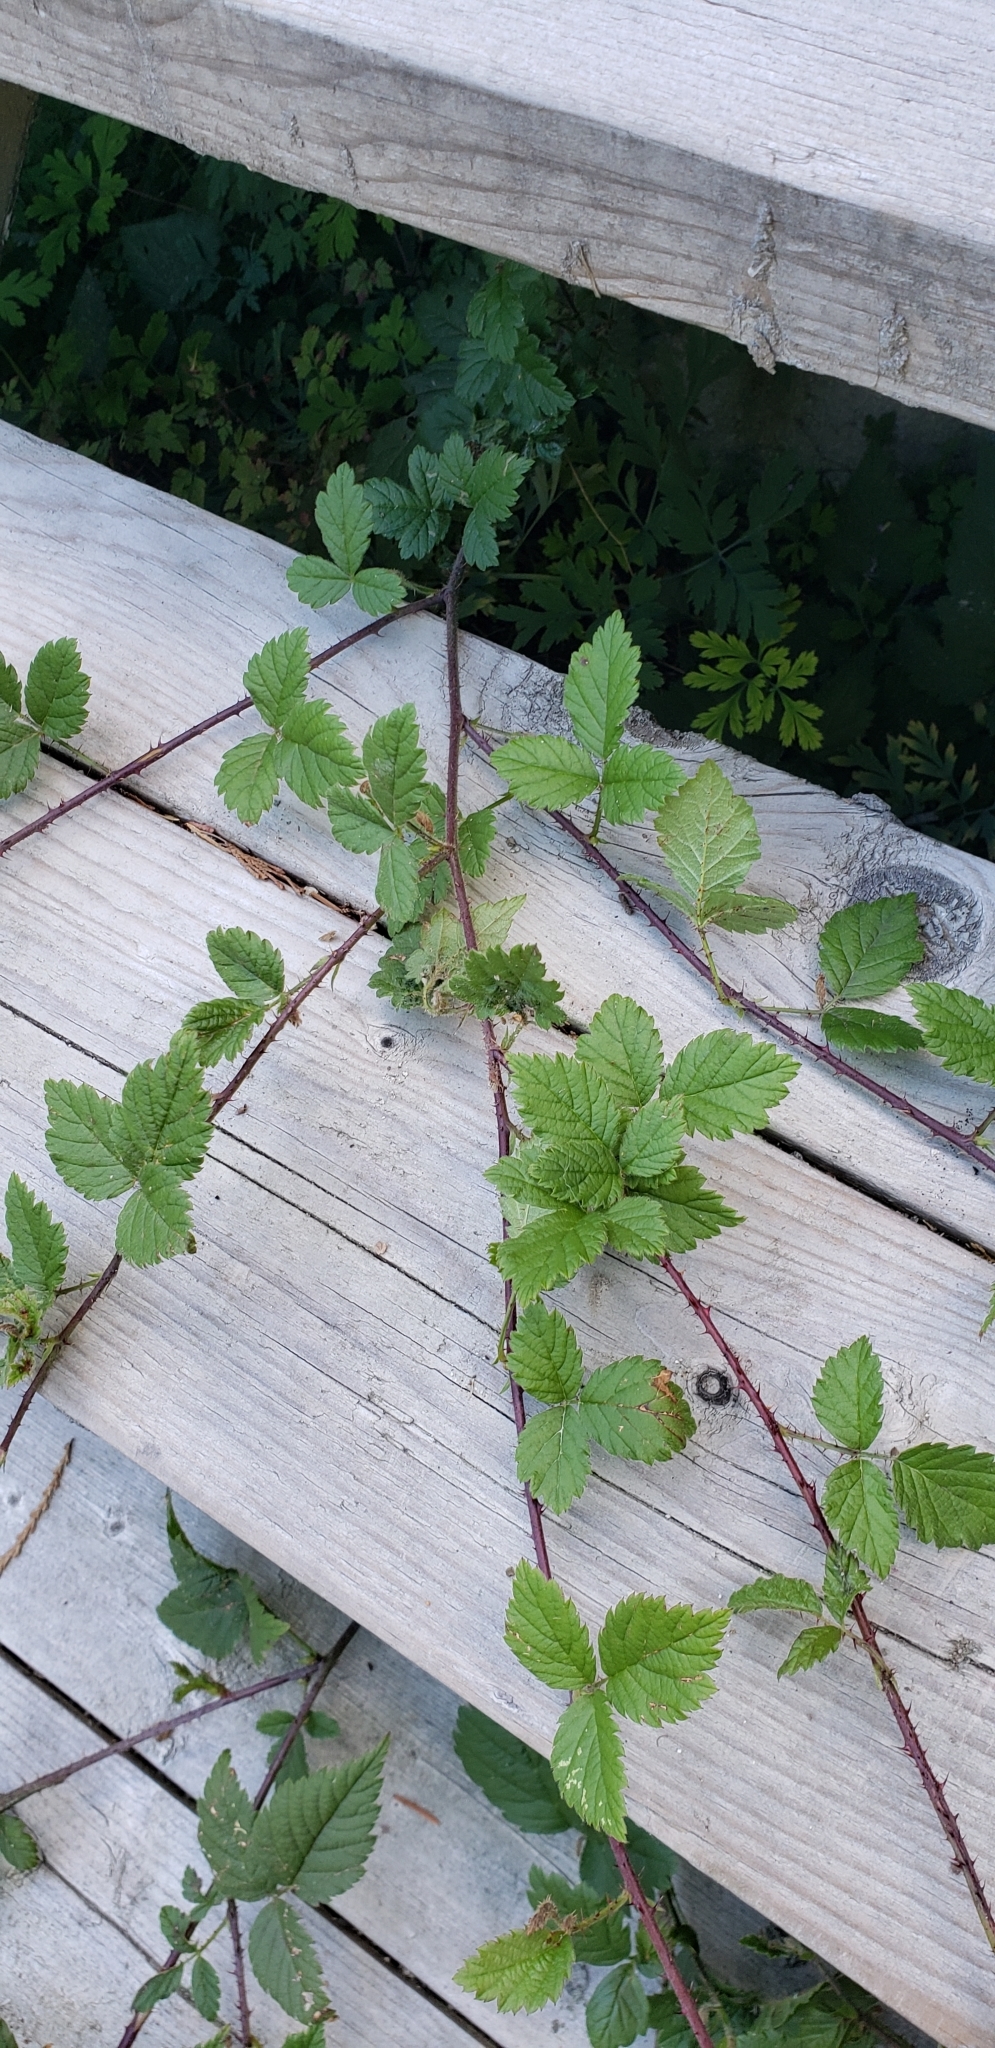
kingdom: Plantae
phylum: Tracheophyta
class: Magnoliopsida
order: Rosales
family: Rosaceae
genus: Rubus
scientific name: Rubus ursinus
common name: Pacific blackberry
